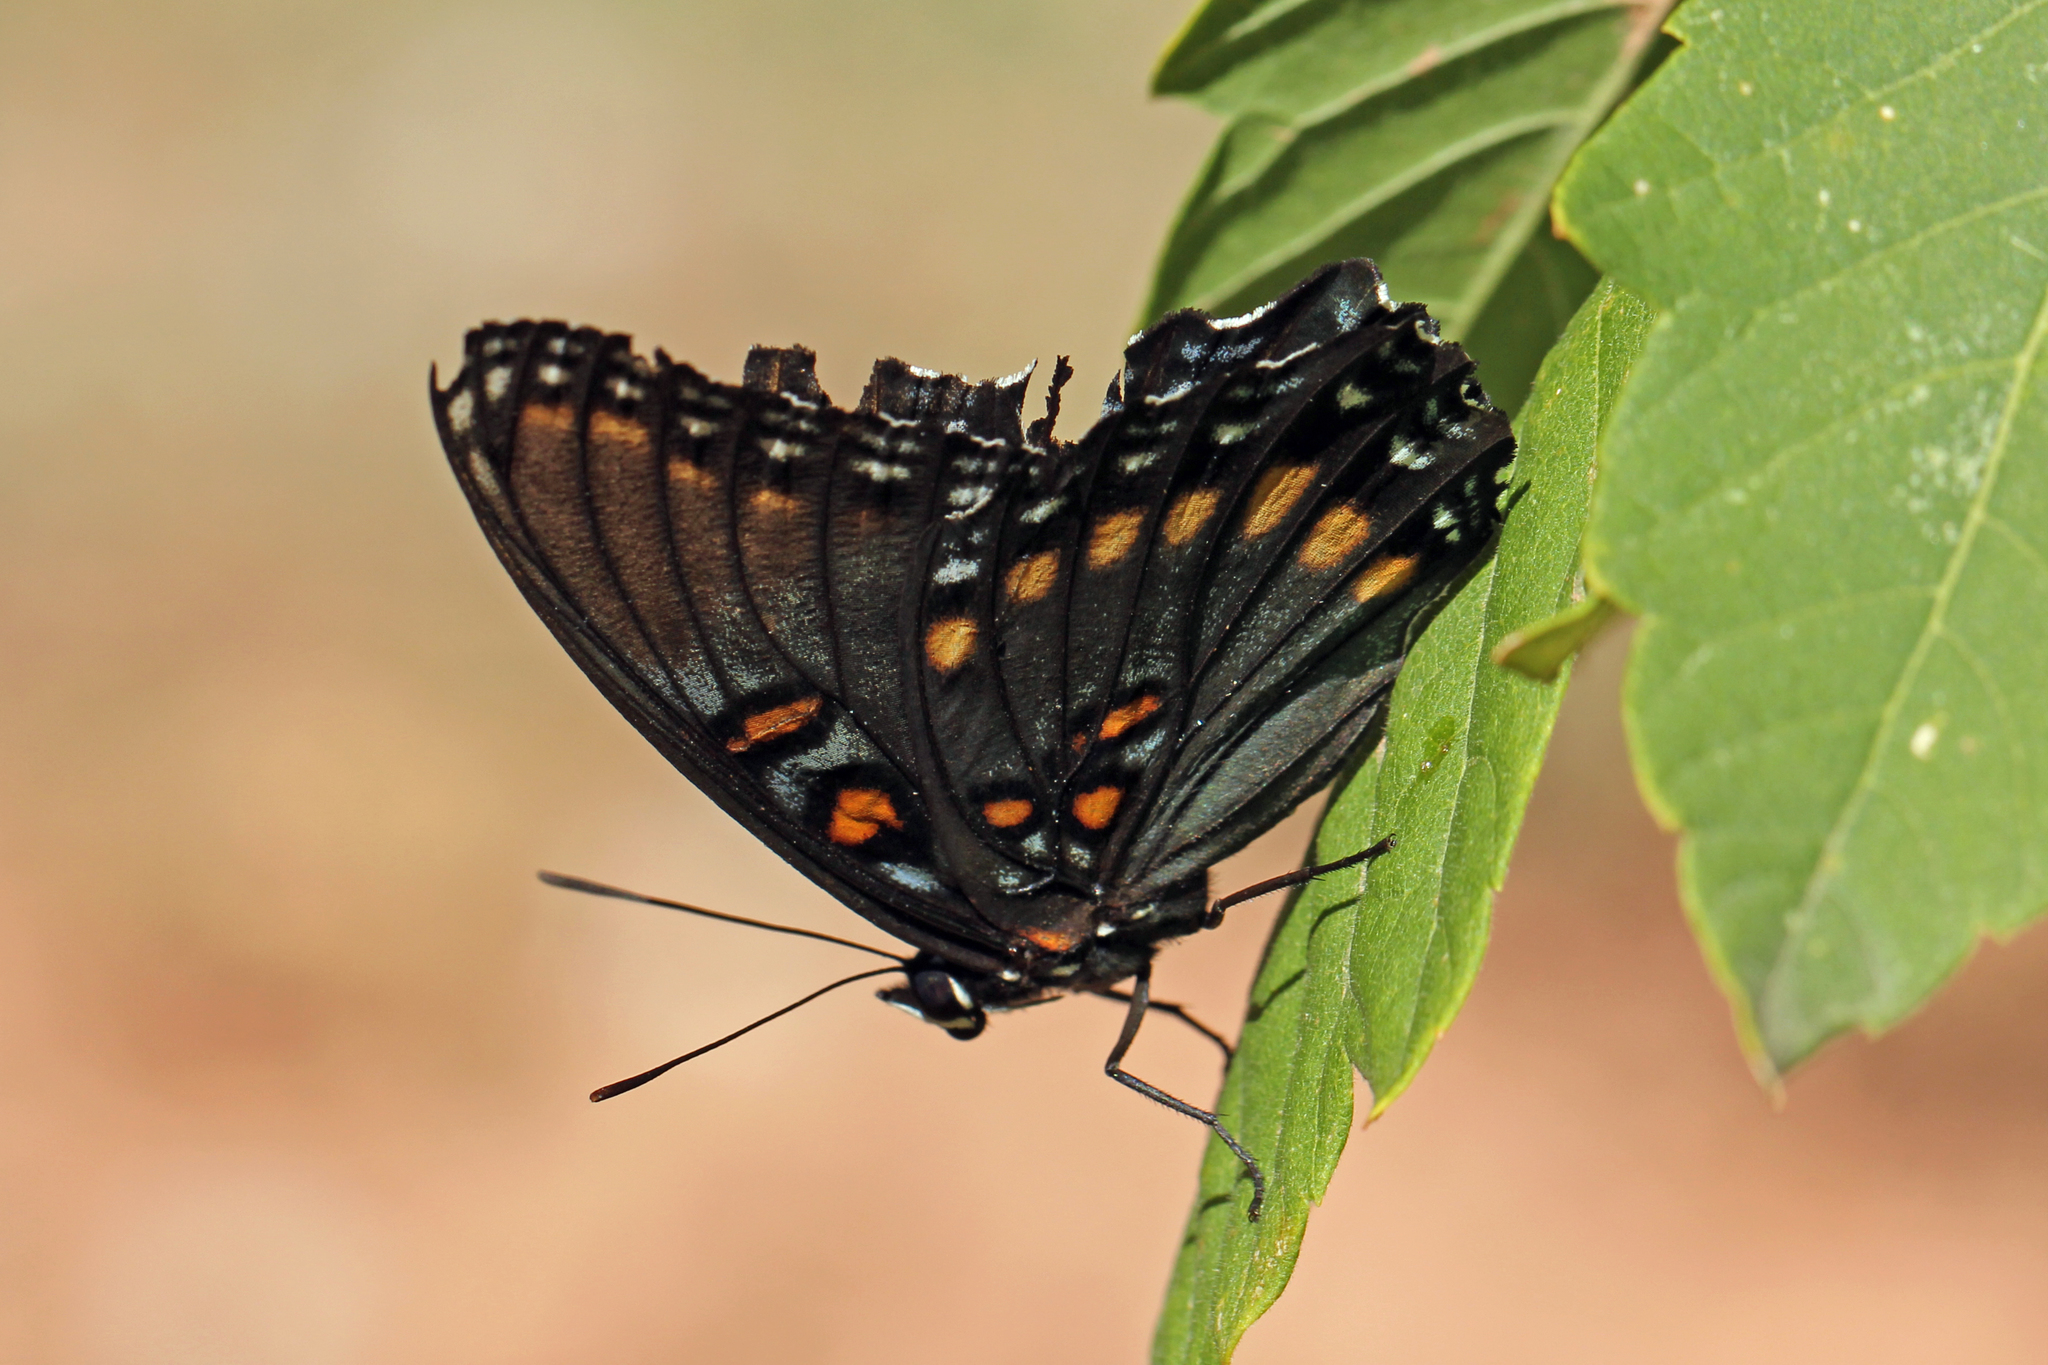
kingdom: Animalia
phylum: Arthropoda
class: Insecta
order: Lepidoptera
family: Nymphalidae
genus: Limenitis
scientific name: Limenitis arthemis
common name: Red-spotted admiral
